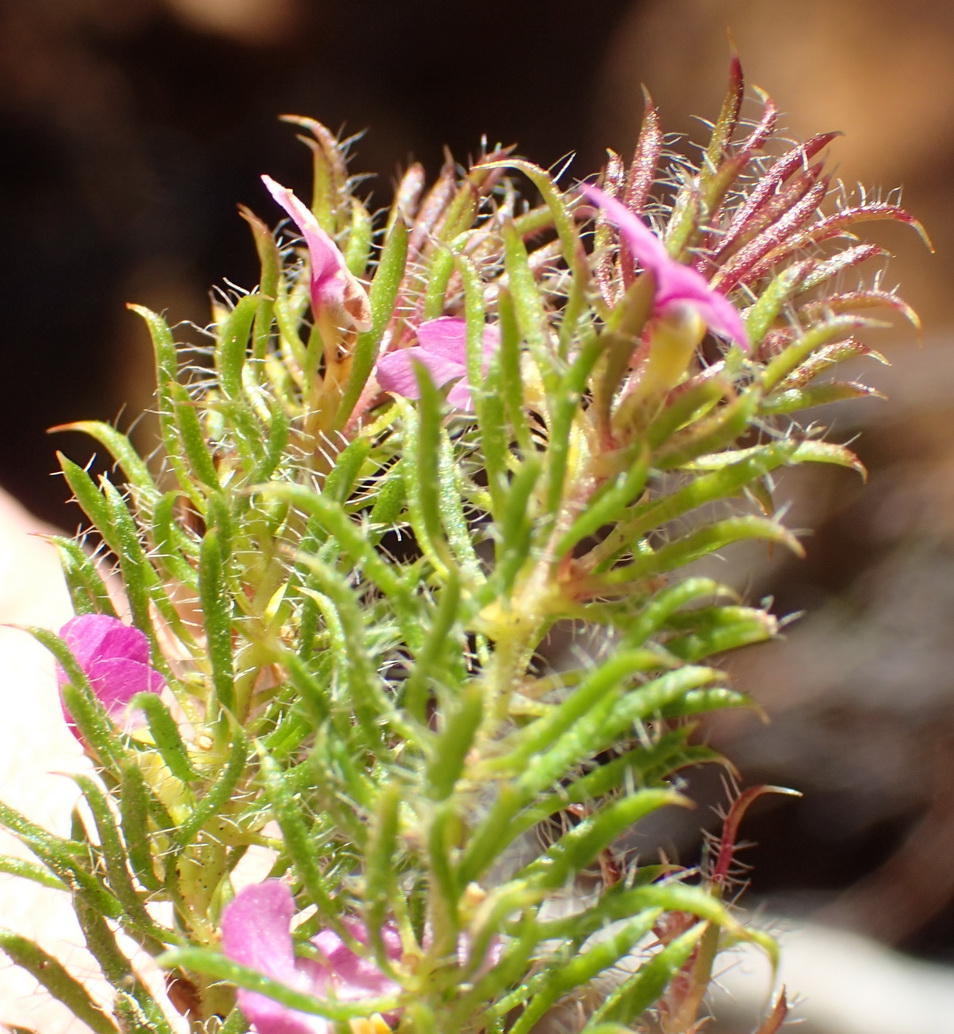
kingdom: Plantae
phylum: Tracheophyta
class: Magnoliopsida
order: Fabales
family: Polygalaceae
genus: Muraltia
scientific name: Muraltia ciliaris
